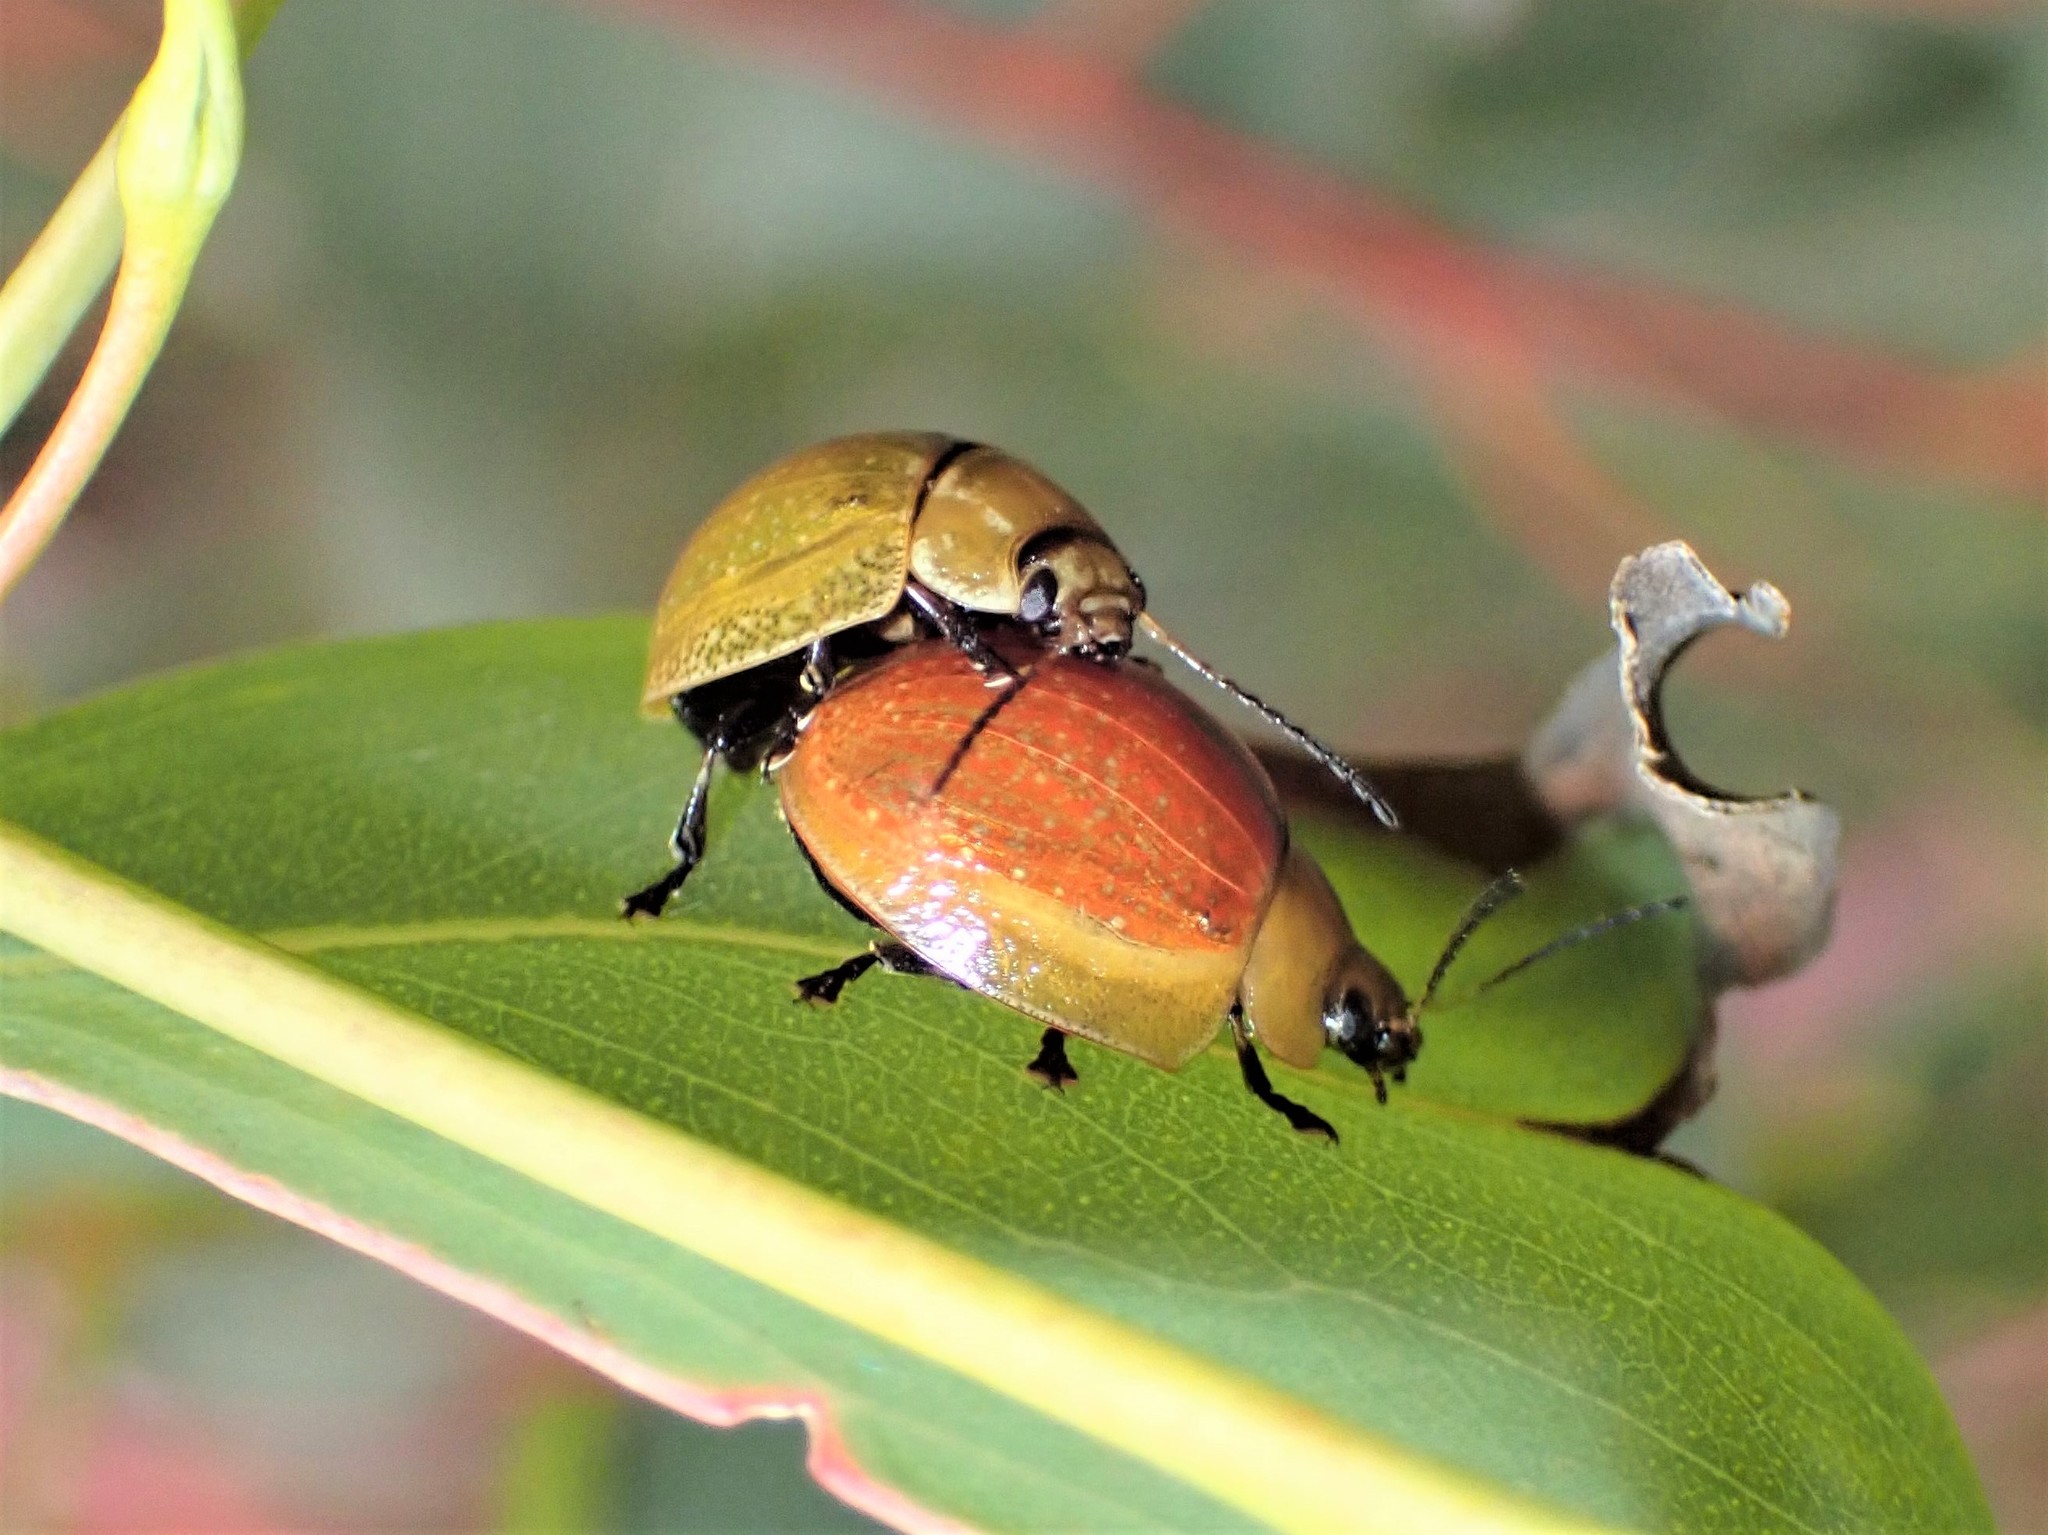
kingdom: Animalia
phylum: Arthropoda
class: Insecta
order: Coleoptera
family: Chrysomelidae
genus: Paropsisterna
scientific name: Paropsisterna cloelia
